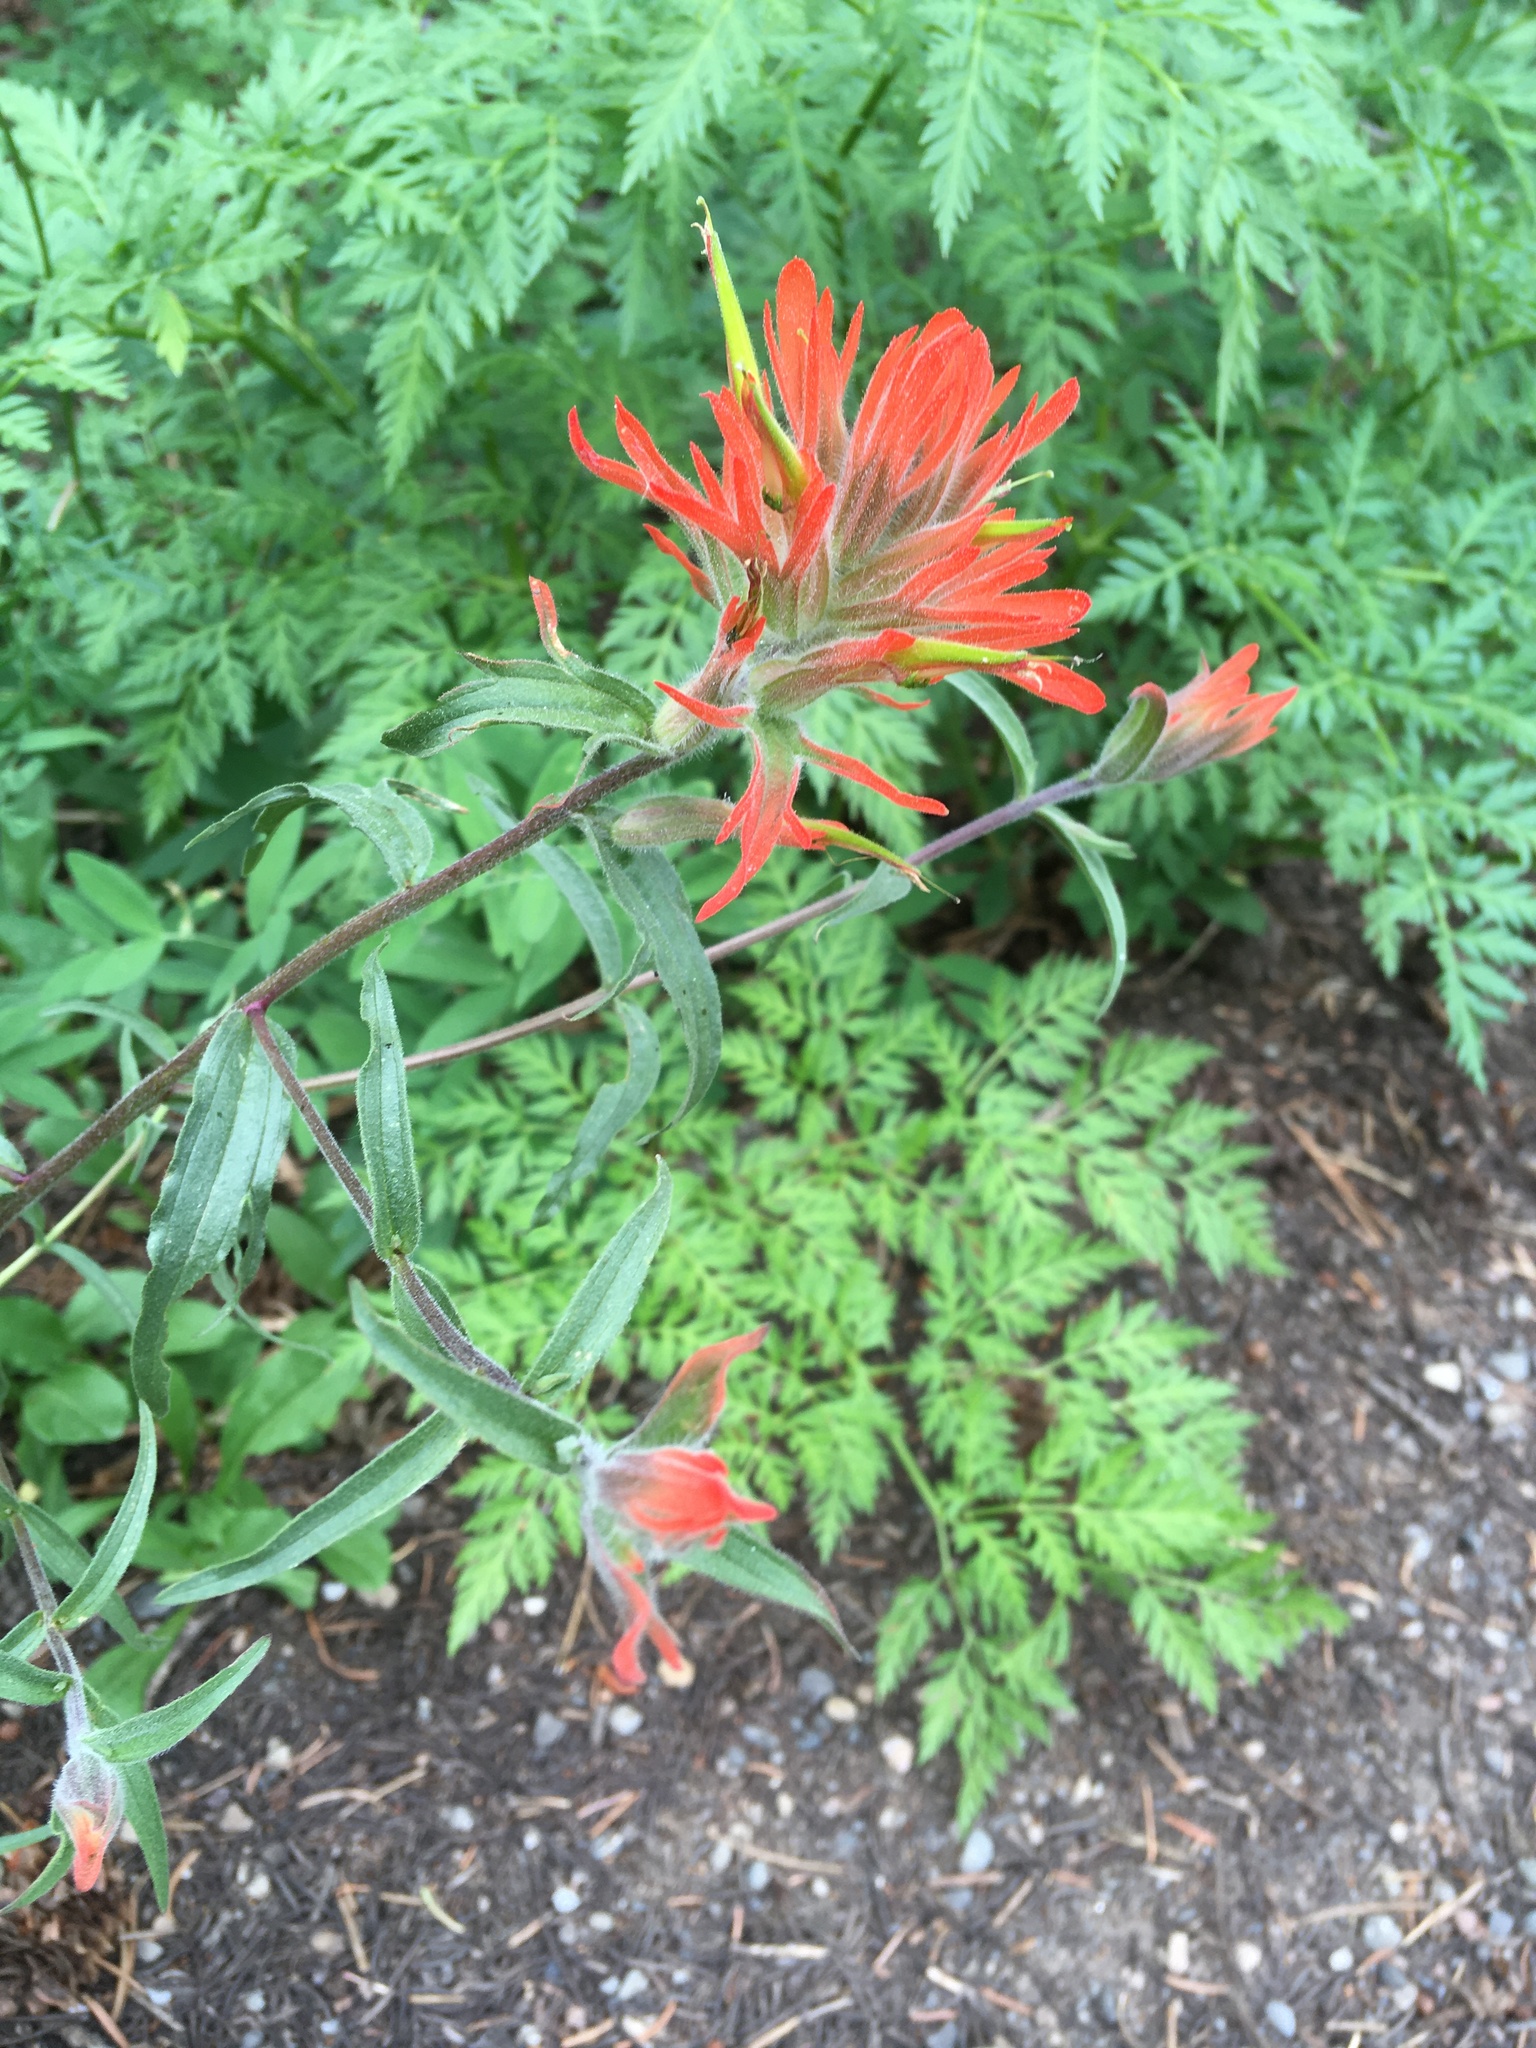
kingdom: Plantae
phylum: Tracheophyta
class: Magnoliopsida
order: Lamiales
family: Orobanchaceae
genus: Castilleja
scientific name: Castilleja miniata
